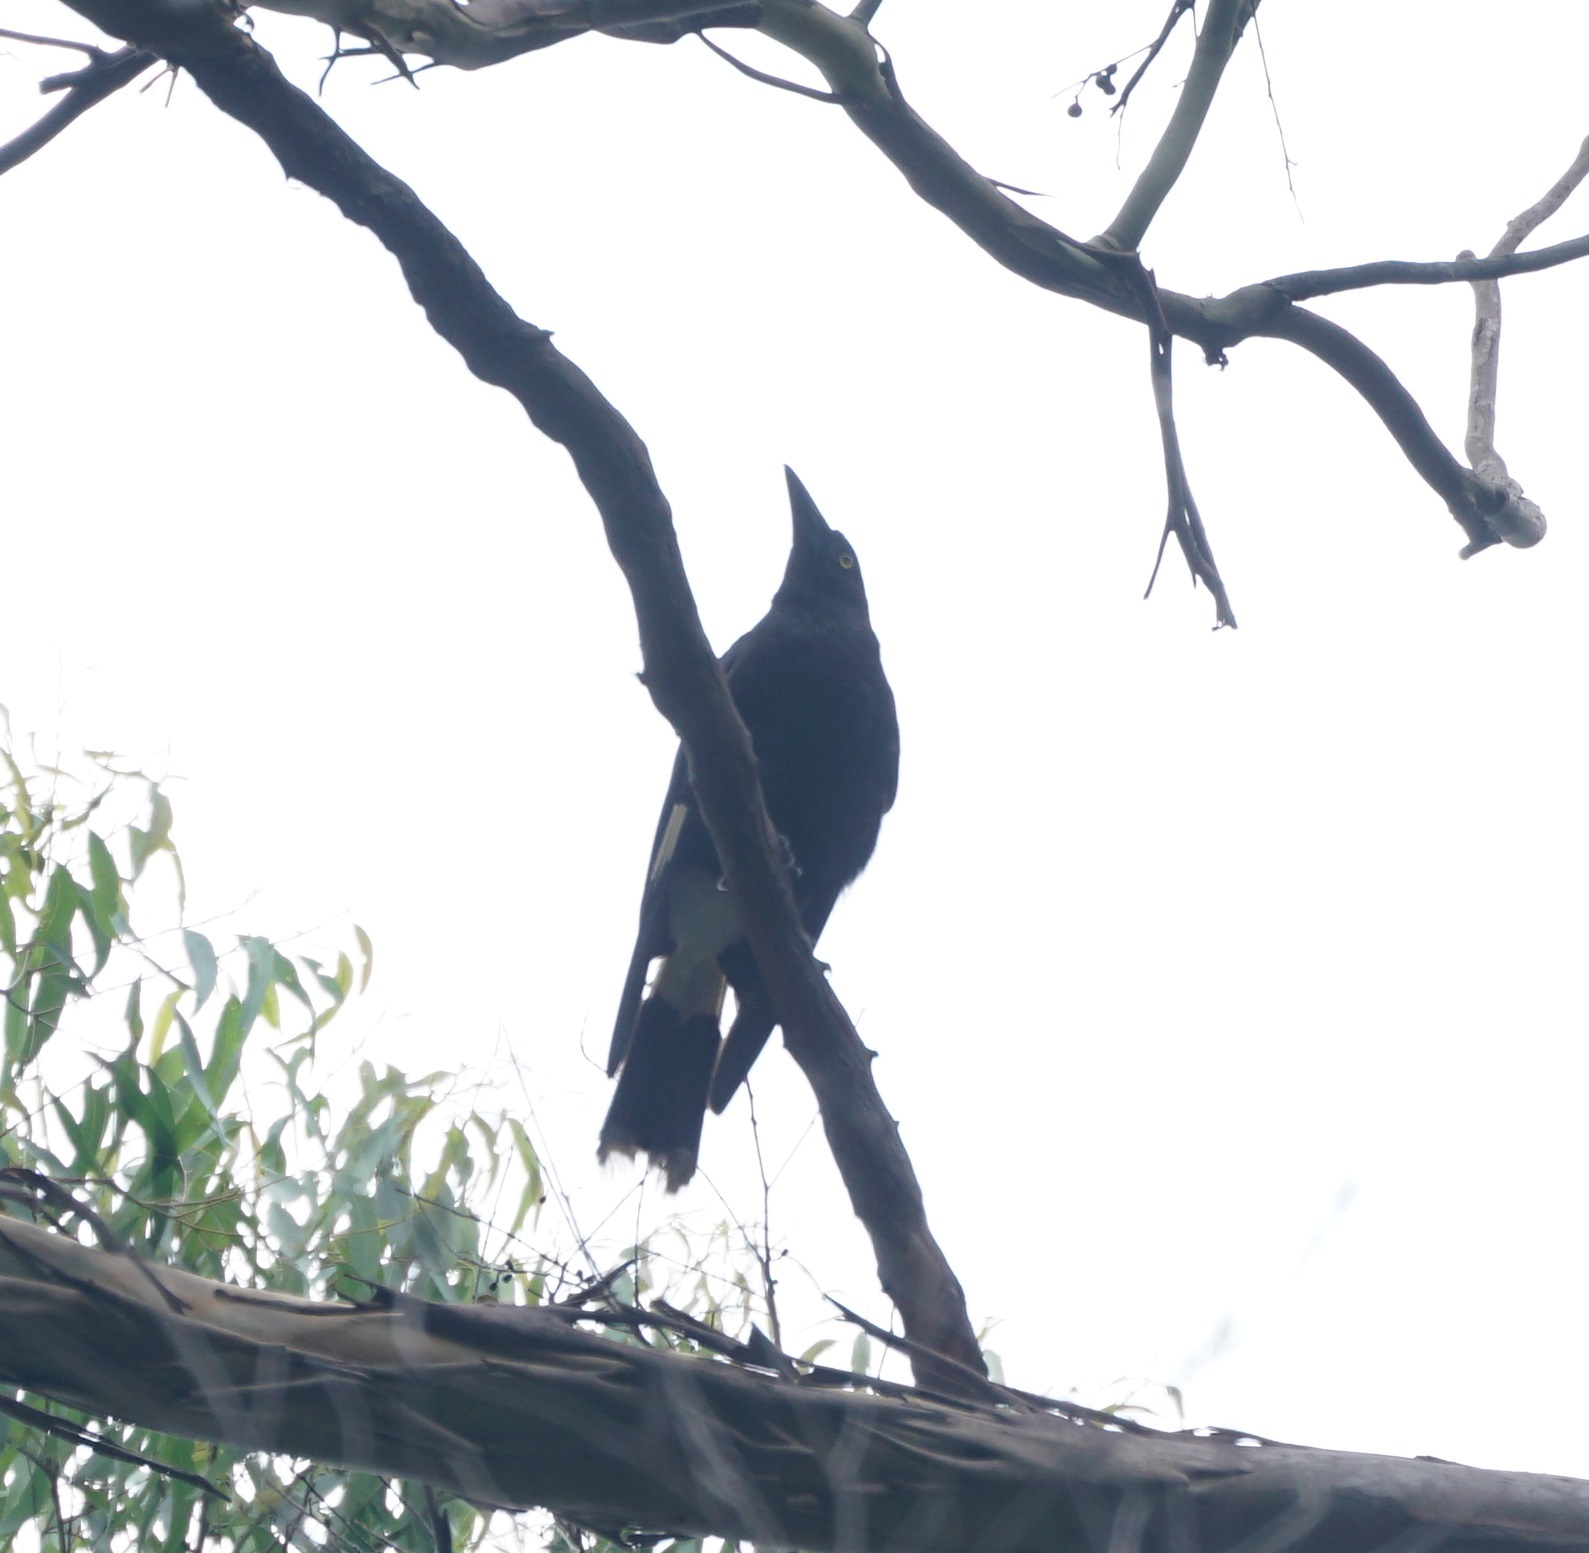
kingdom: Animalia
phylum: Chordata
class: Aves
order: Passeriformes
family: Cracticidae
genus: Strepera
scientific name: Strepera graculina
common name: Pied currawong
